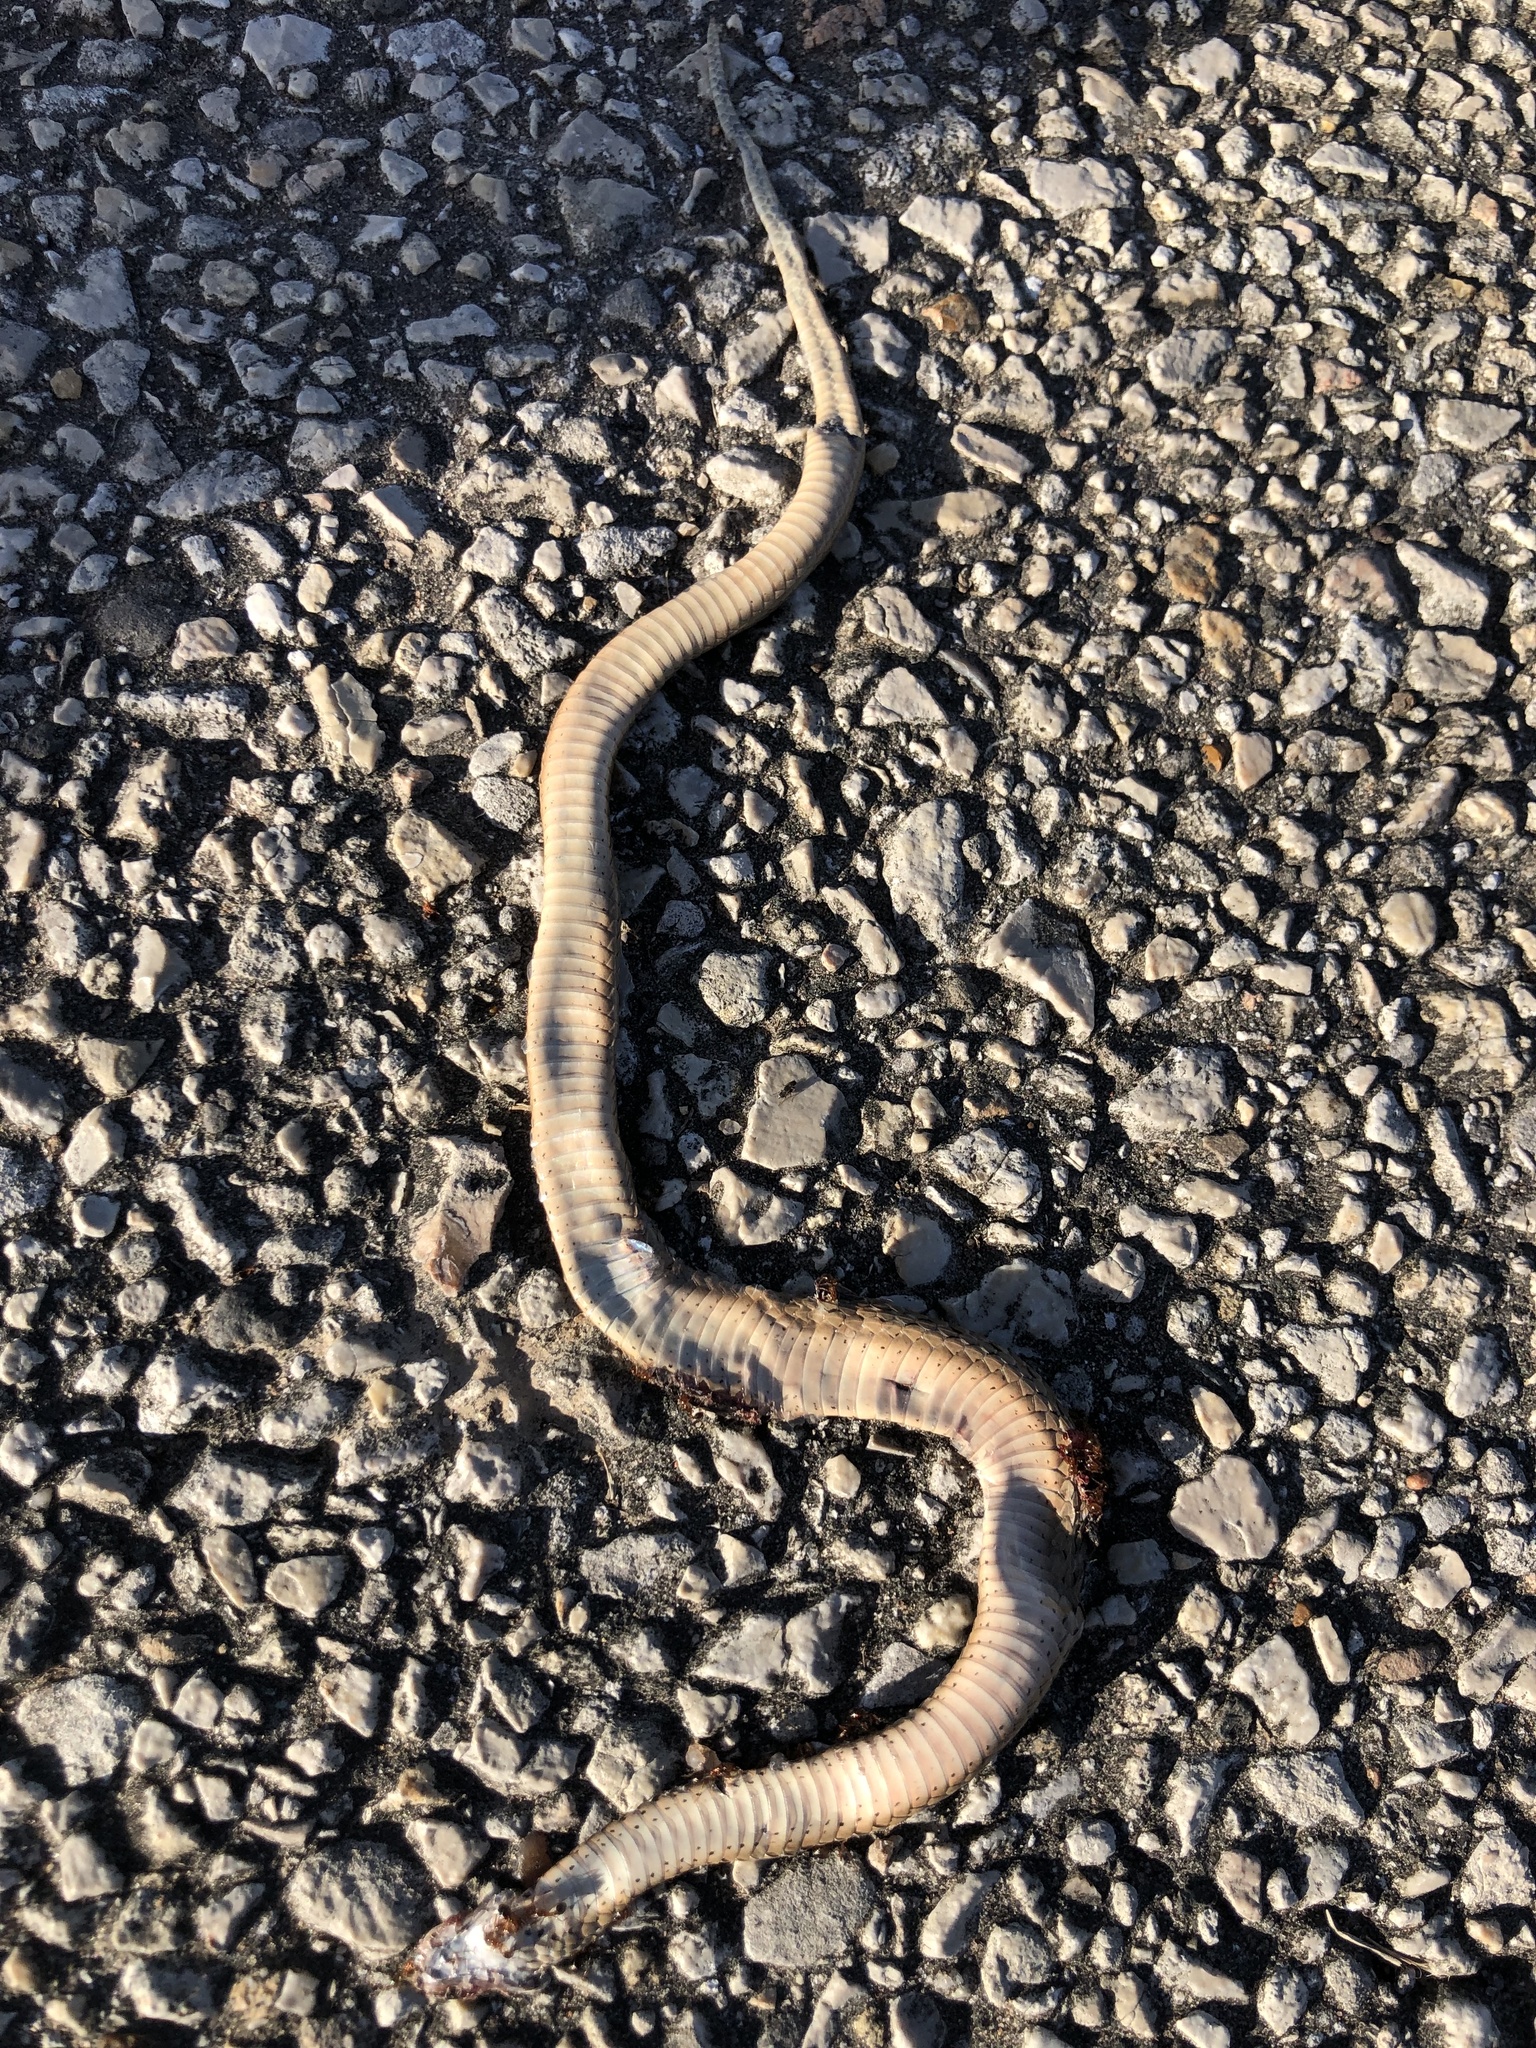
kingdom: Animalia
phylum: Chordata
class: Squamata
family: Colubridae
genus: Storeria
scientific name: Storeria dekayi
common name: (dekay’s) brown snake
